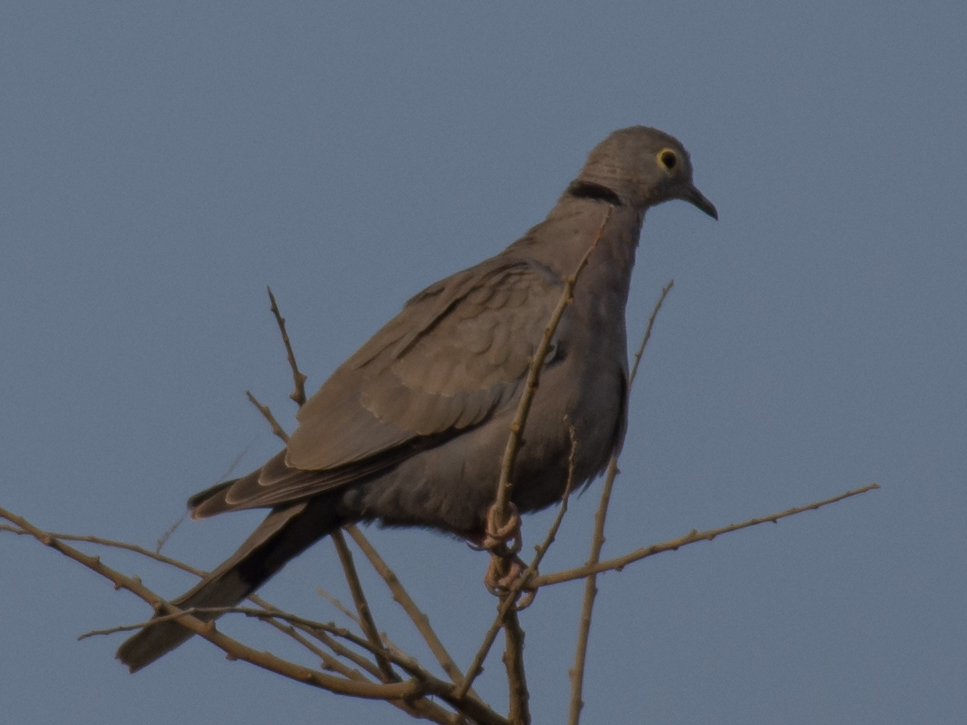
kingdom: Animalia
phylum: Chordata
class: Aves
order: Columbiformes
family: Columbidae
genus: Streptopelia
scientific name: Streptopelia xanthocycla
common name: Burmese collared dove
